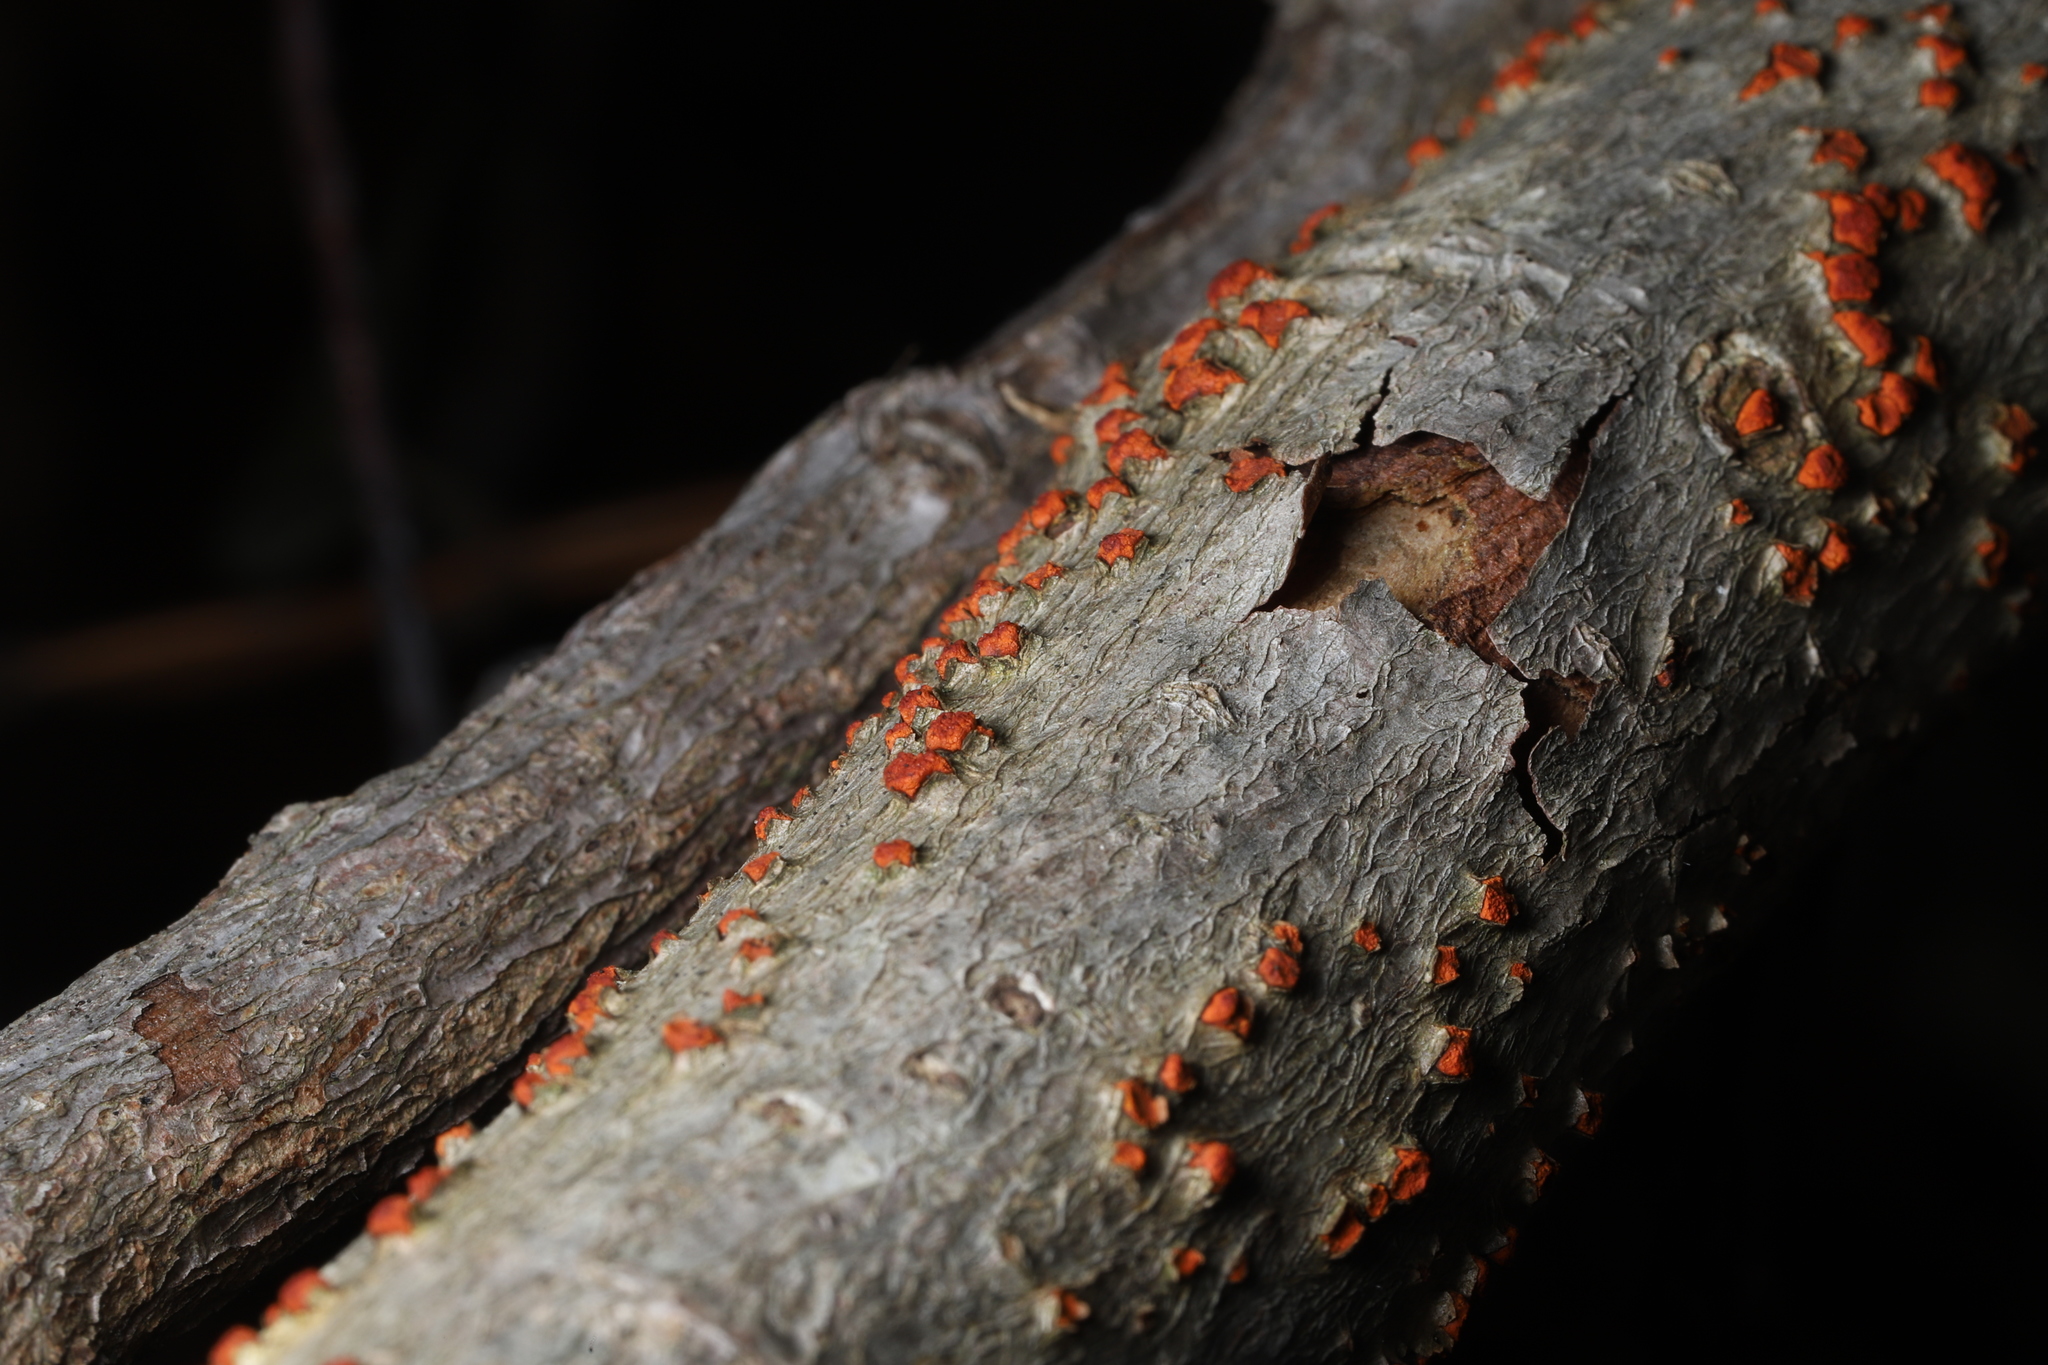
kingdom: Fungi
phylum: Ascomycota
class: Sordariomycetes
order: Diaporthales
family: Cryphonectriaceae
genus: Amphilogia
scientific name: Amphilogia gyrosa
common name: Orange hobnail canker
